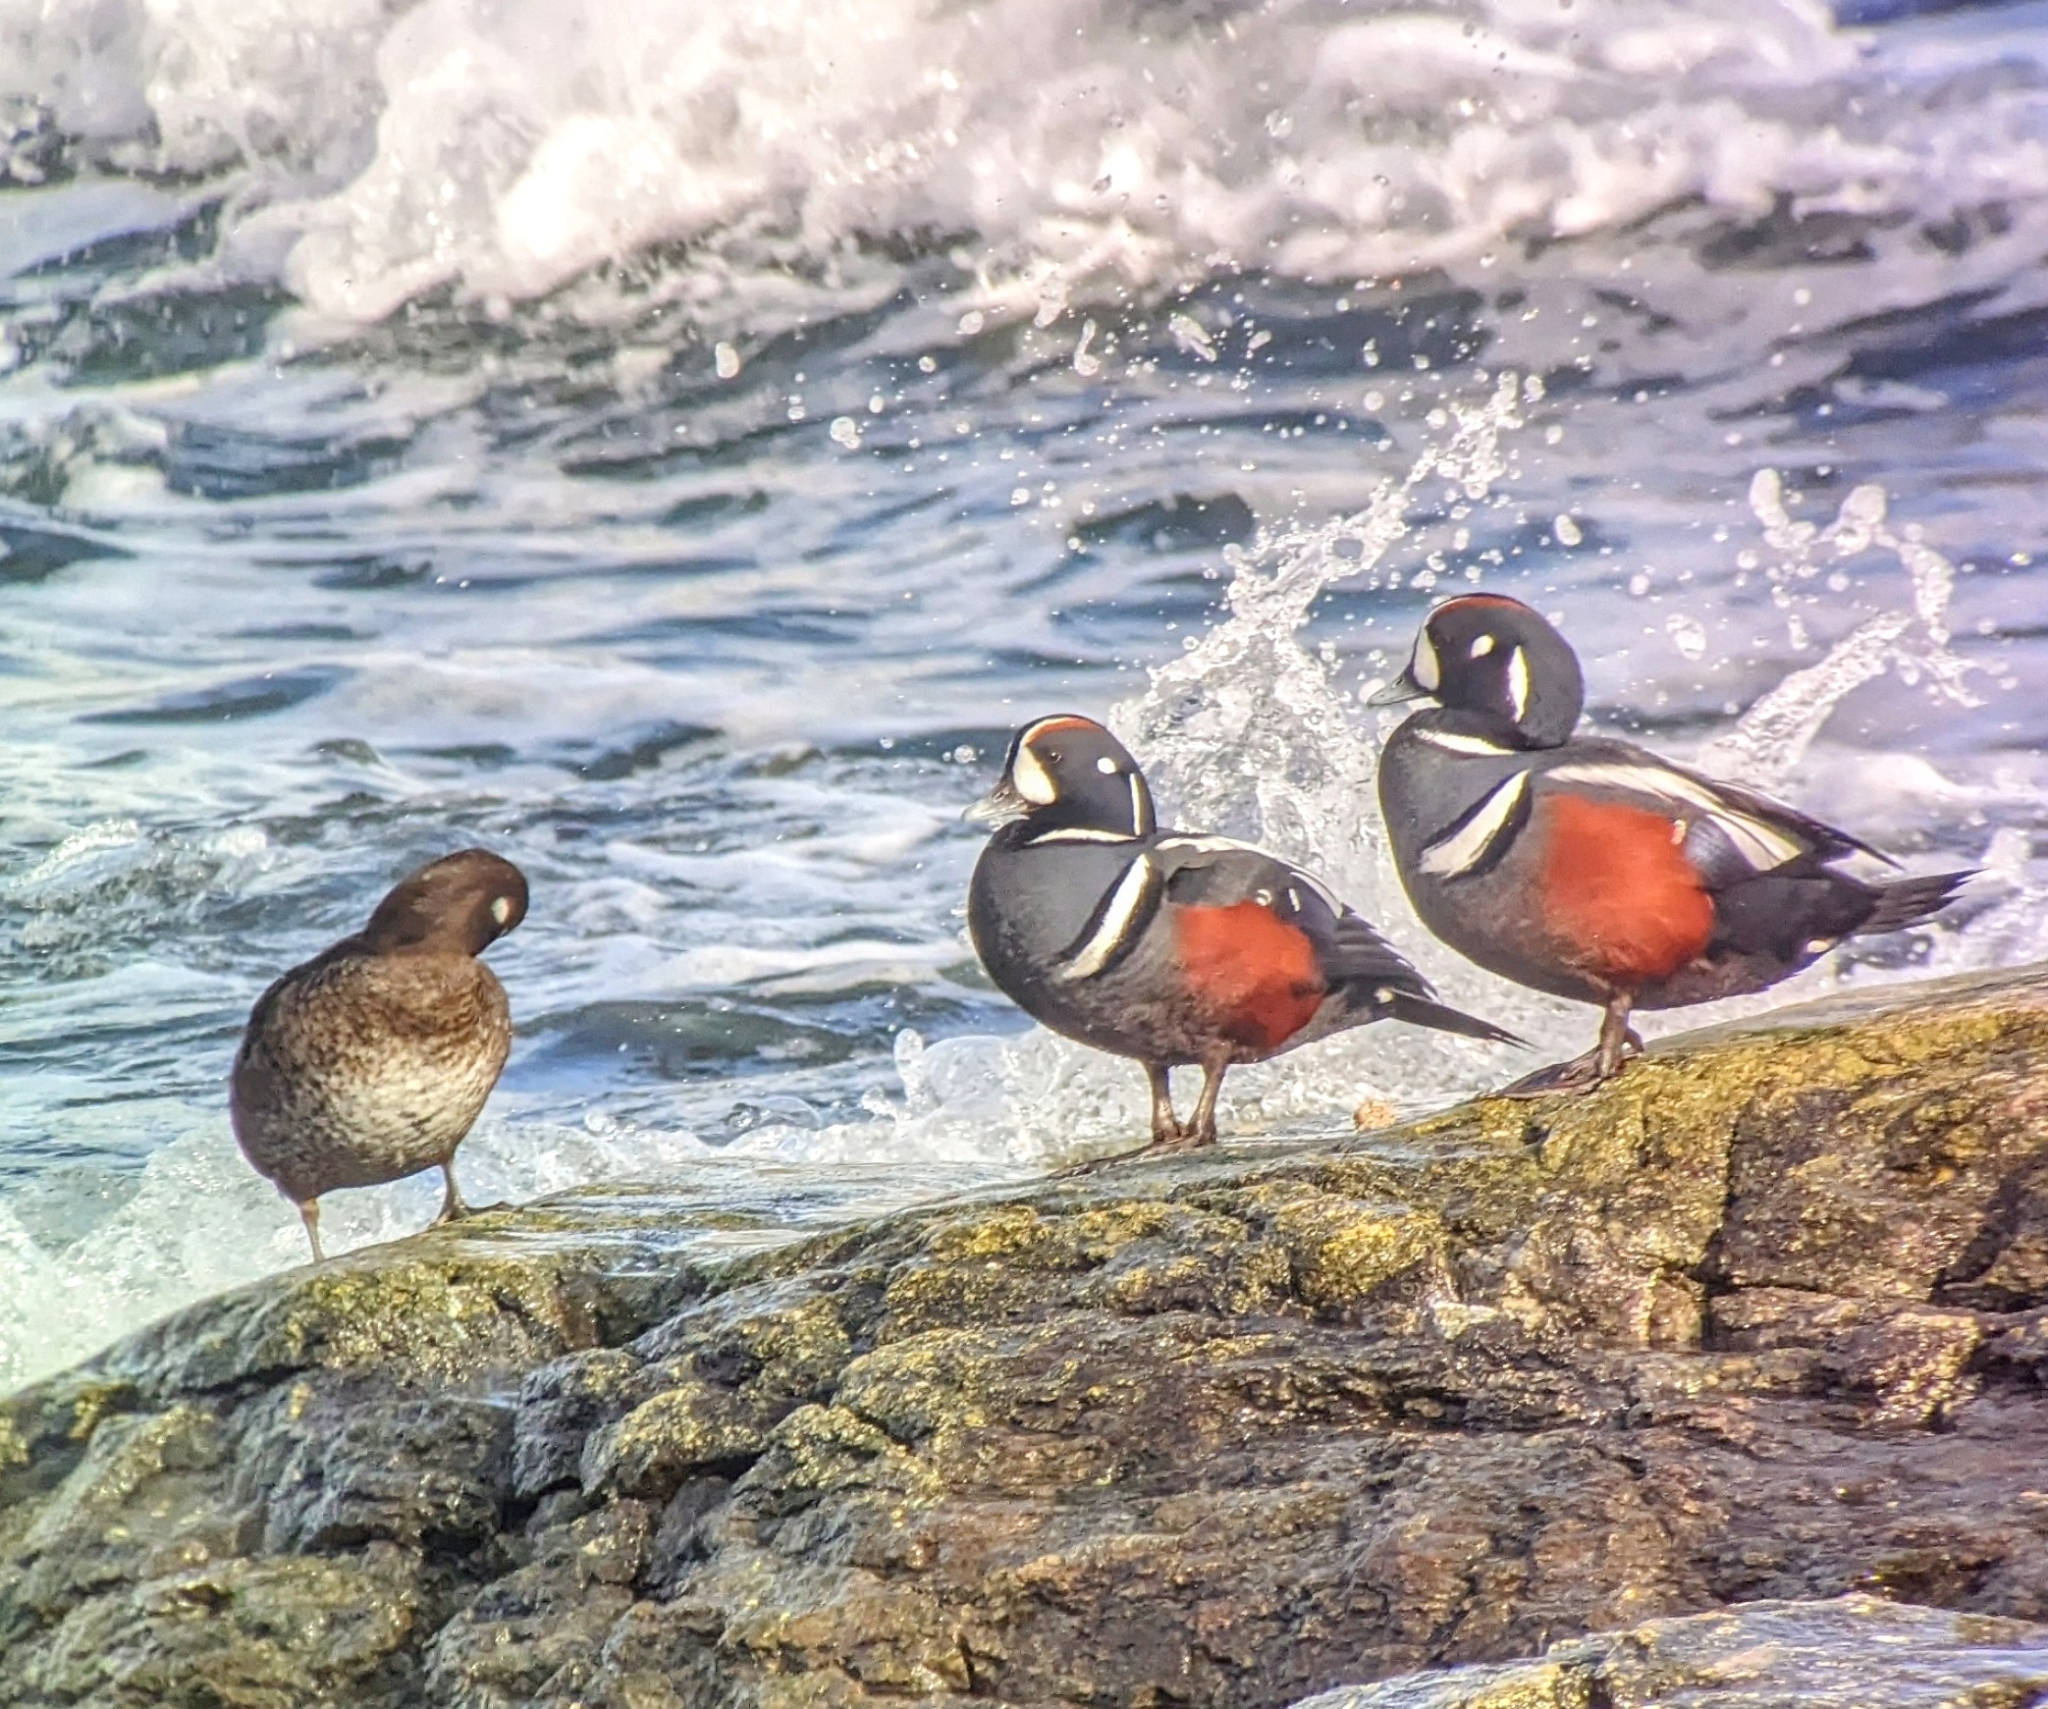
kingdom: Animalia
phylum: Chordata
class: Aves
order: Anseriformes
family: Anatidae
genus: Histrionicus
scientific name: Histrionicus histrionicus
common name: Harlequin duck
